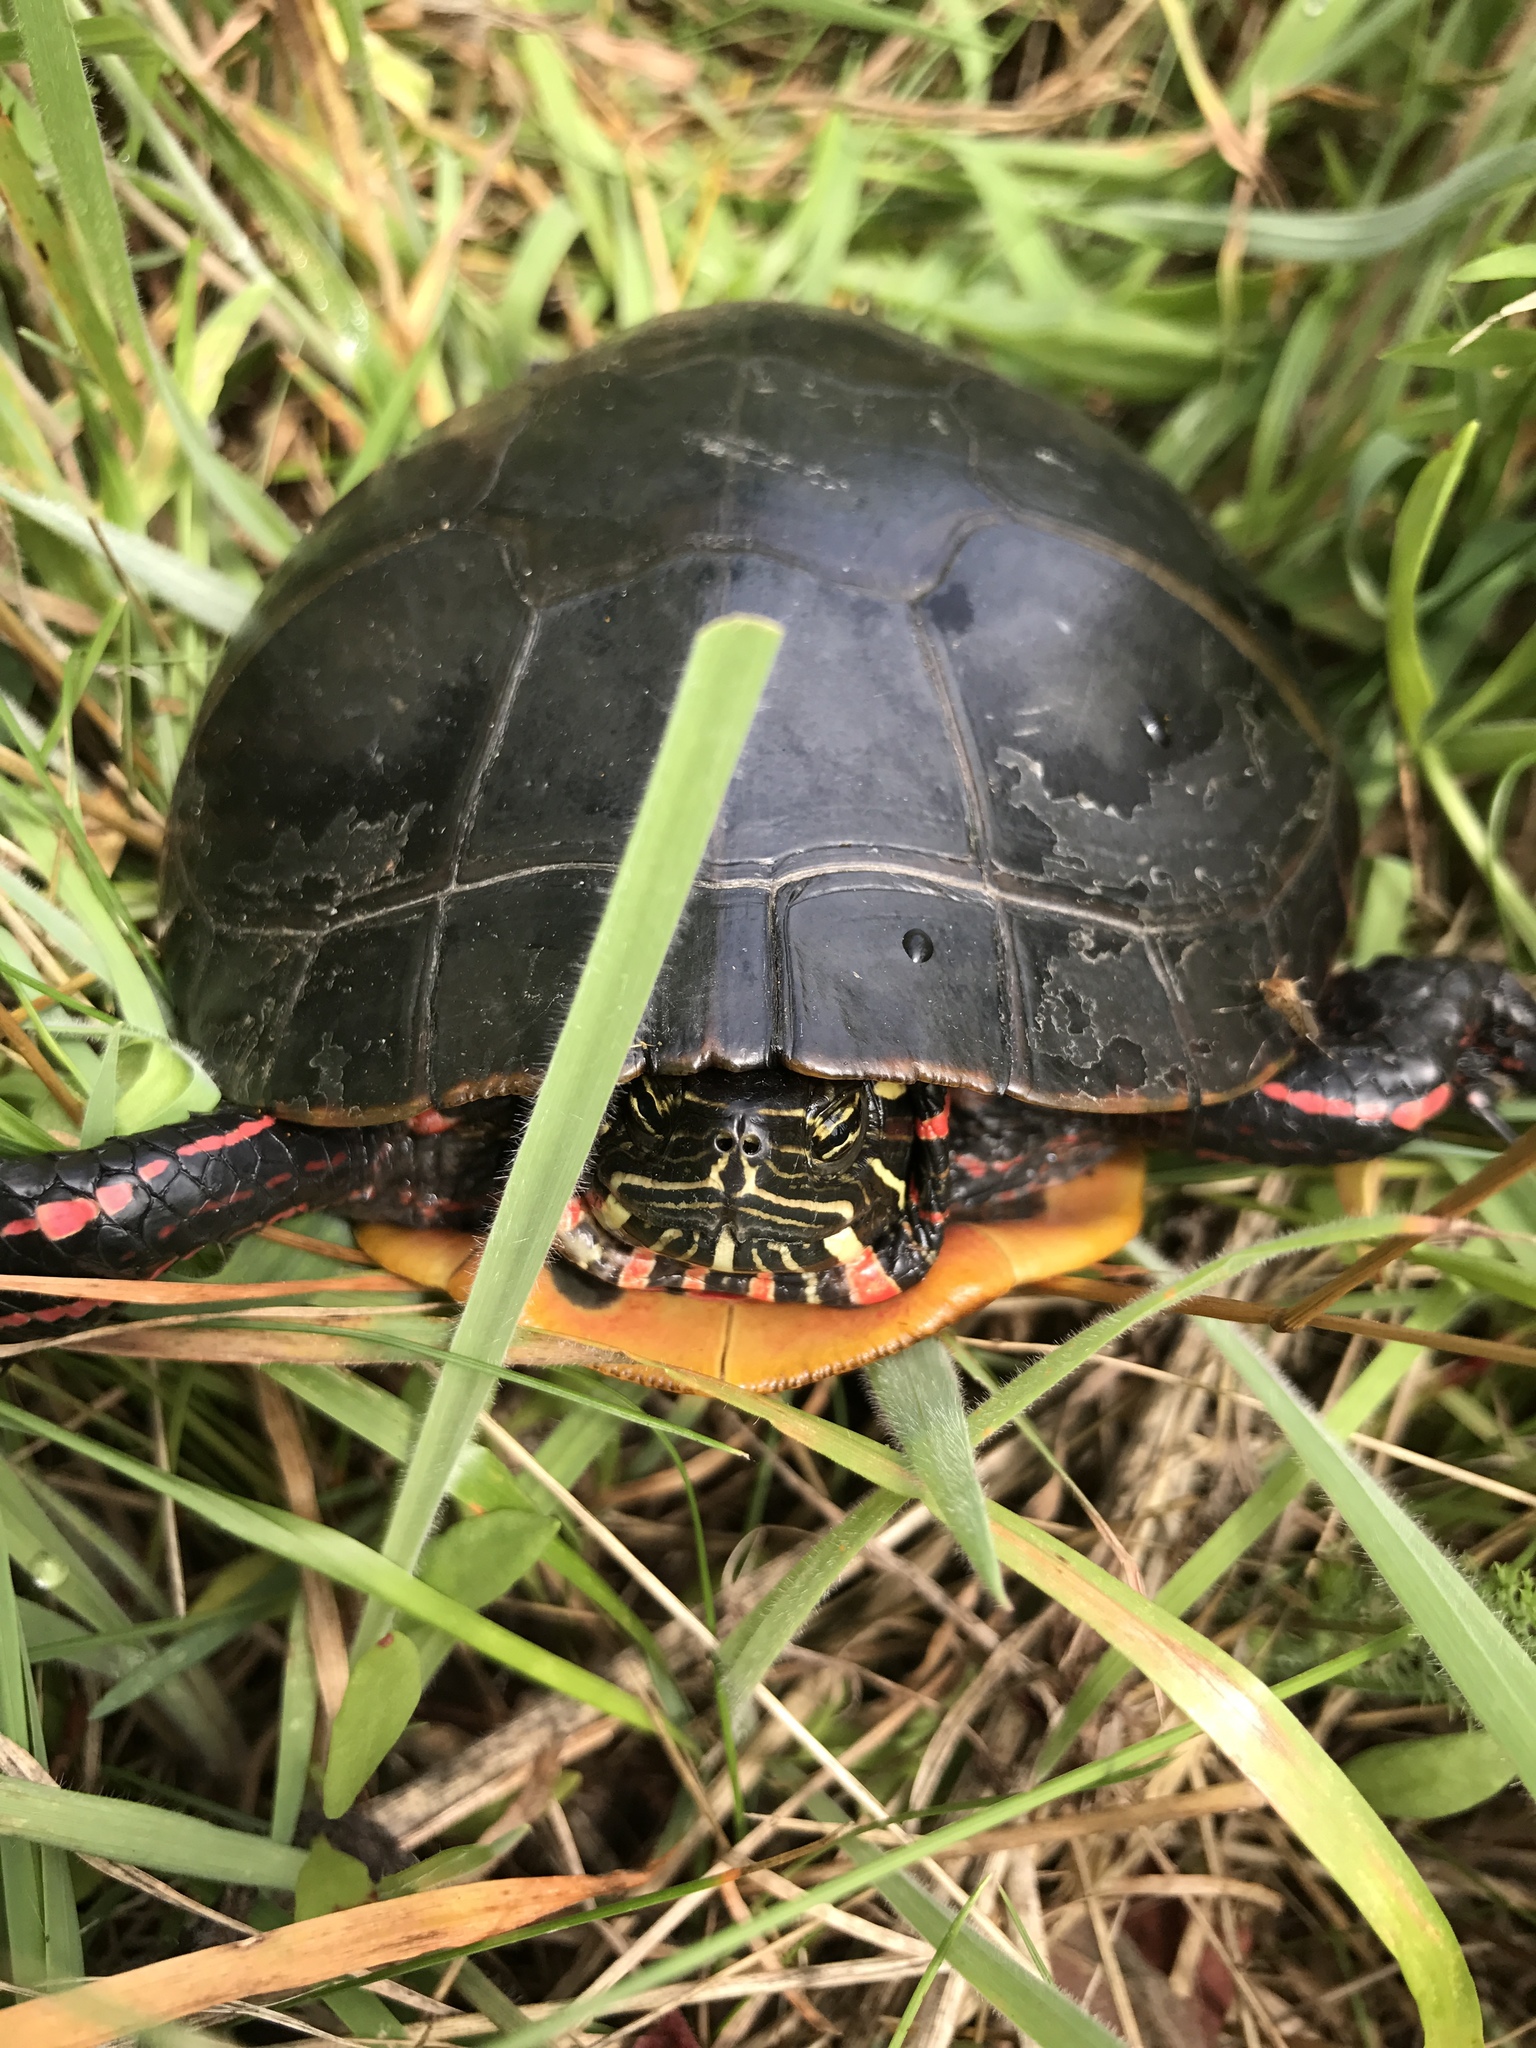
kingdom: Animalia
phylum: Chordata
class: Testudines
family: Emydidae
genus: Chrysemys
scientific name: Chrysemys picta
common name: Painted turtle
